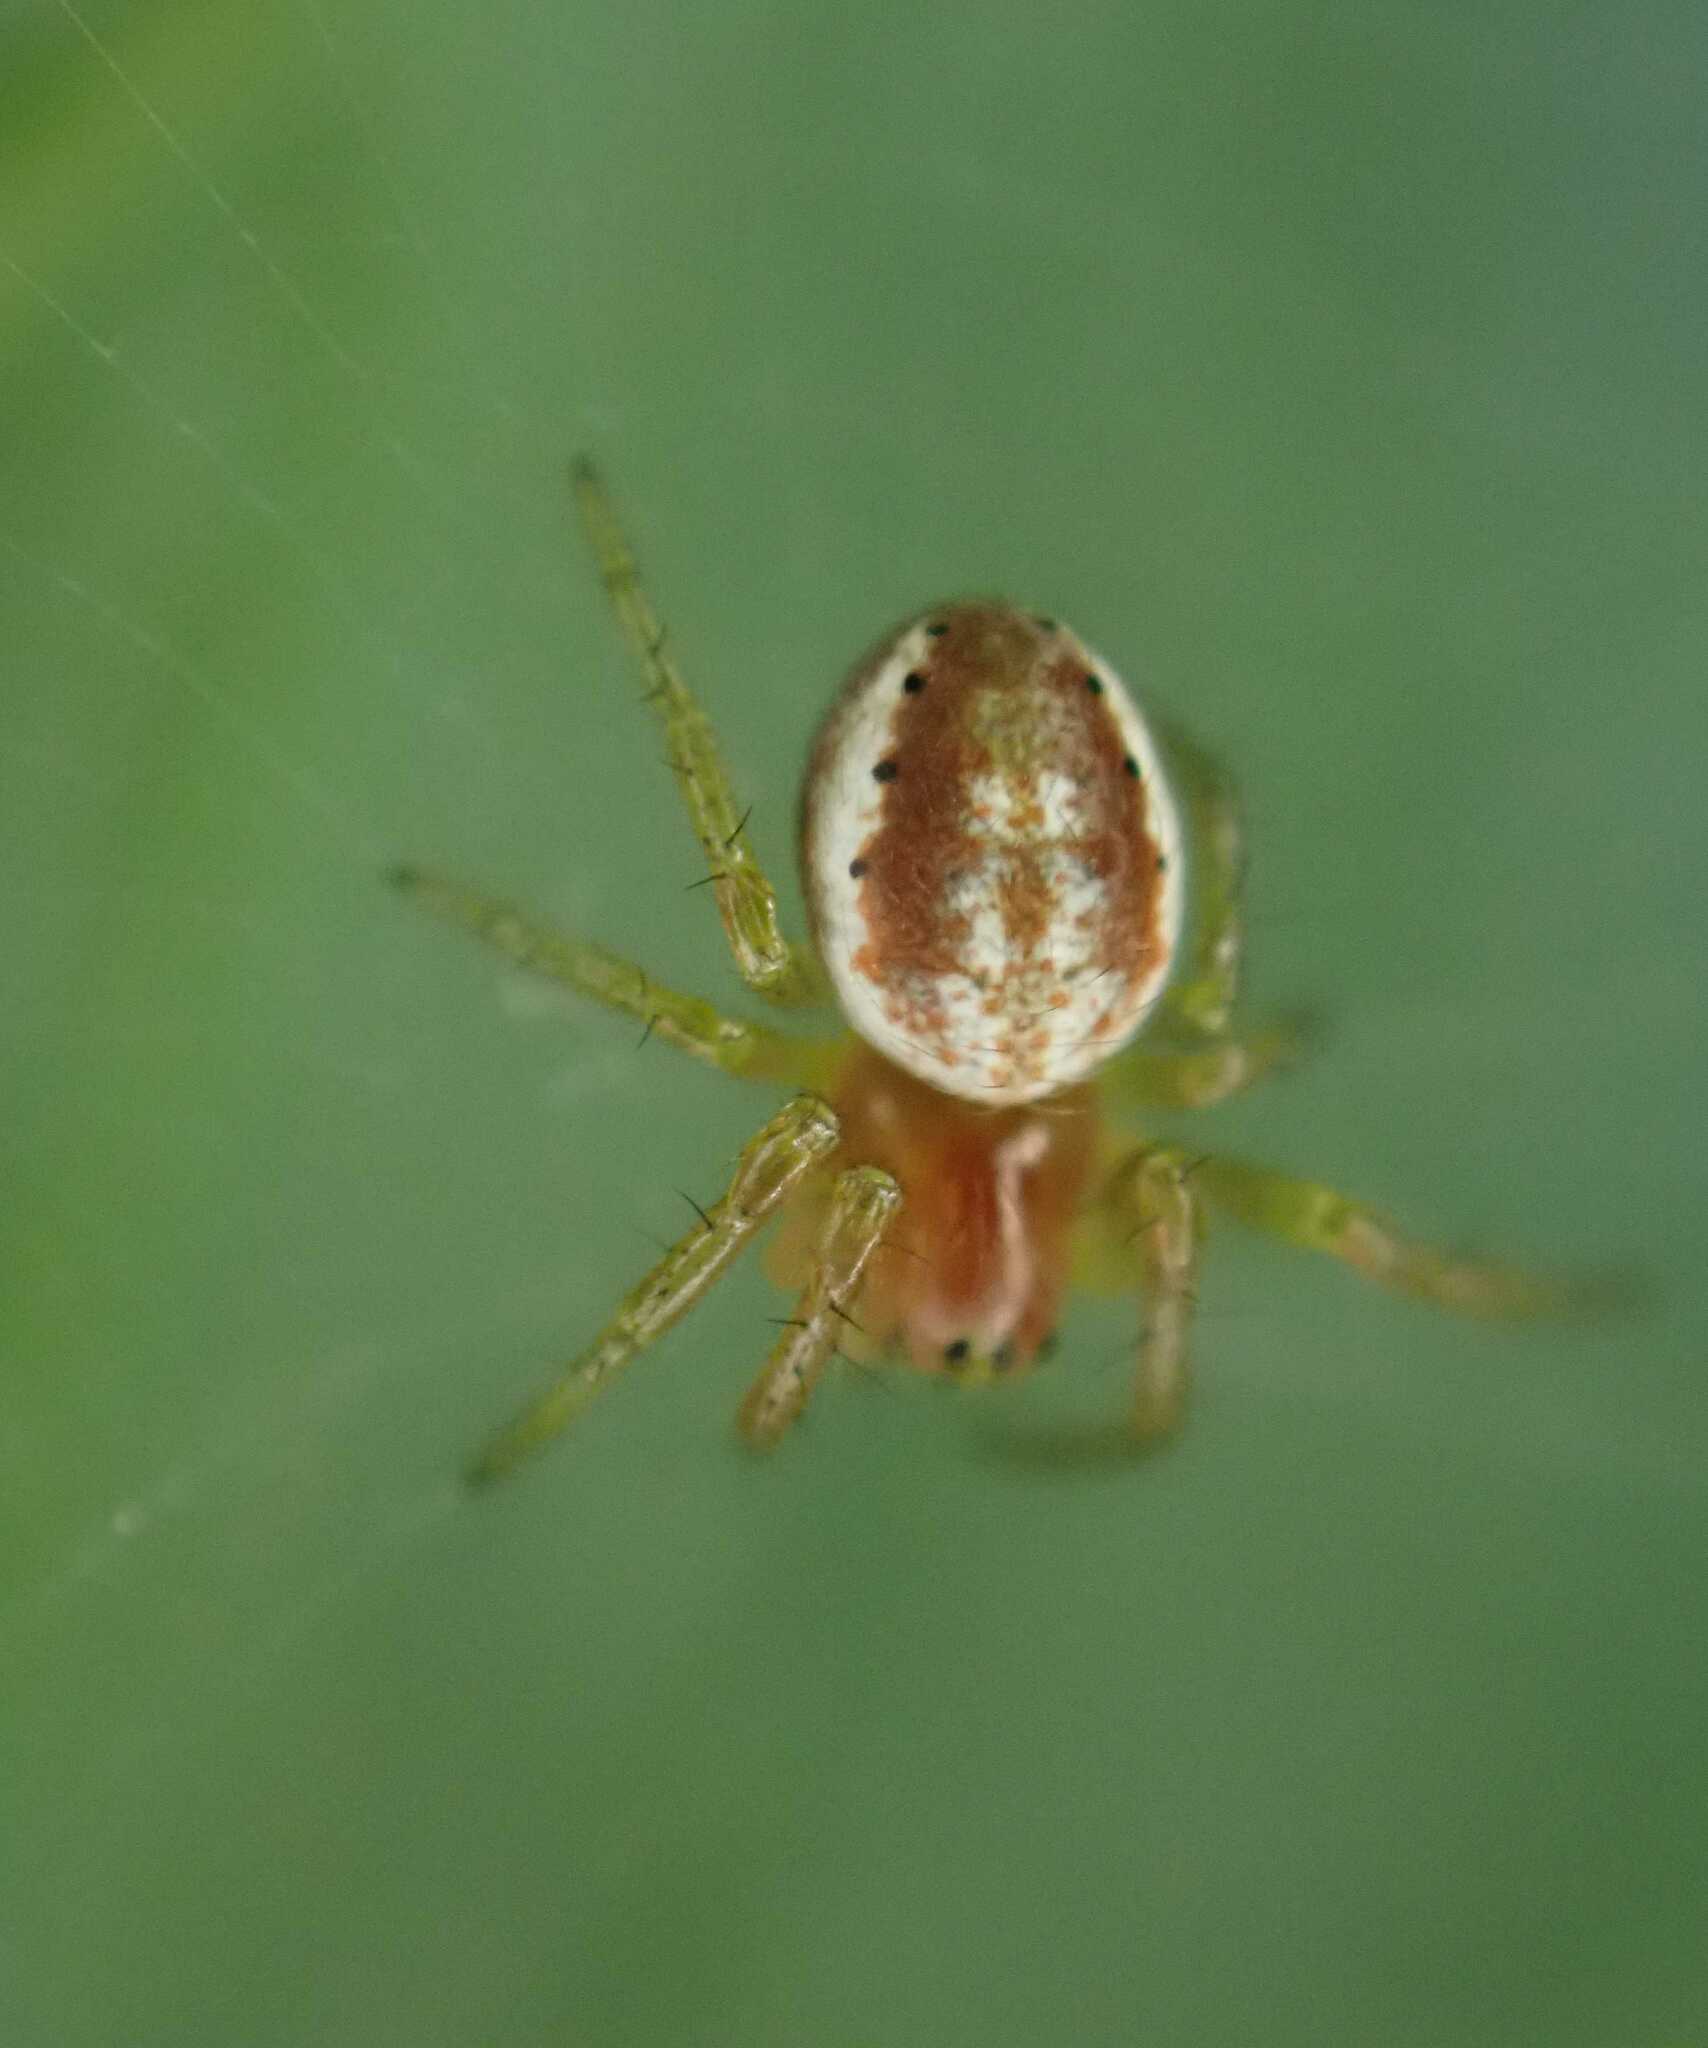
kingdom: Animalia
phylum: Arthropoda
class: Arachnida
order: Araneae
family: Araneidae
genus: Araniella
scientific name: Araniella
